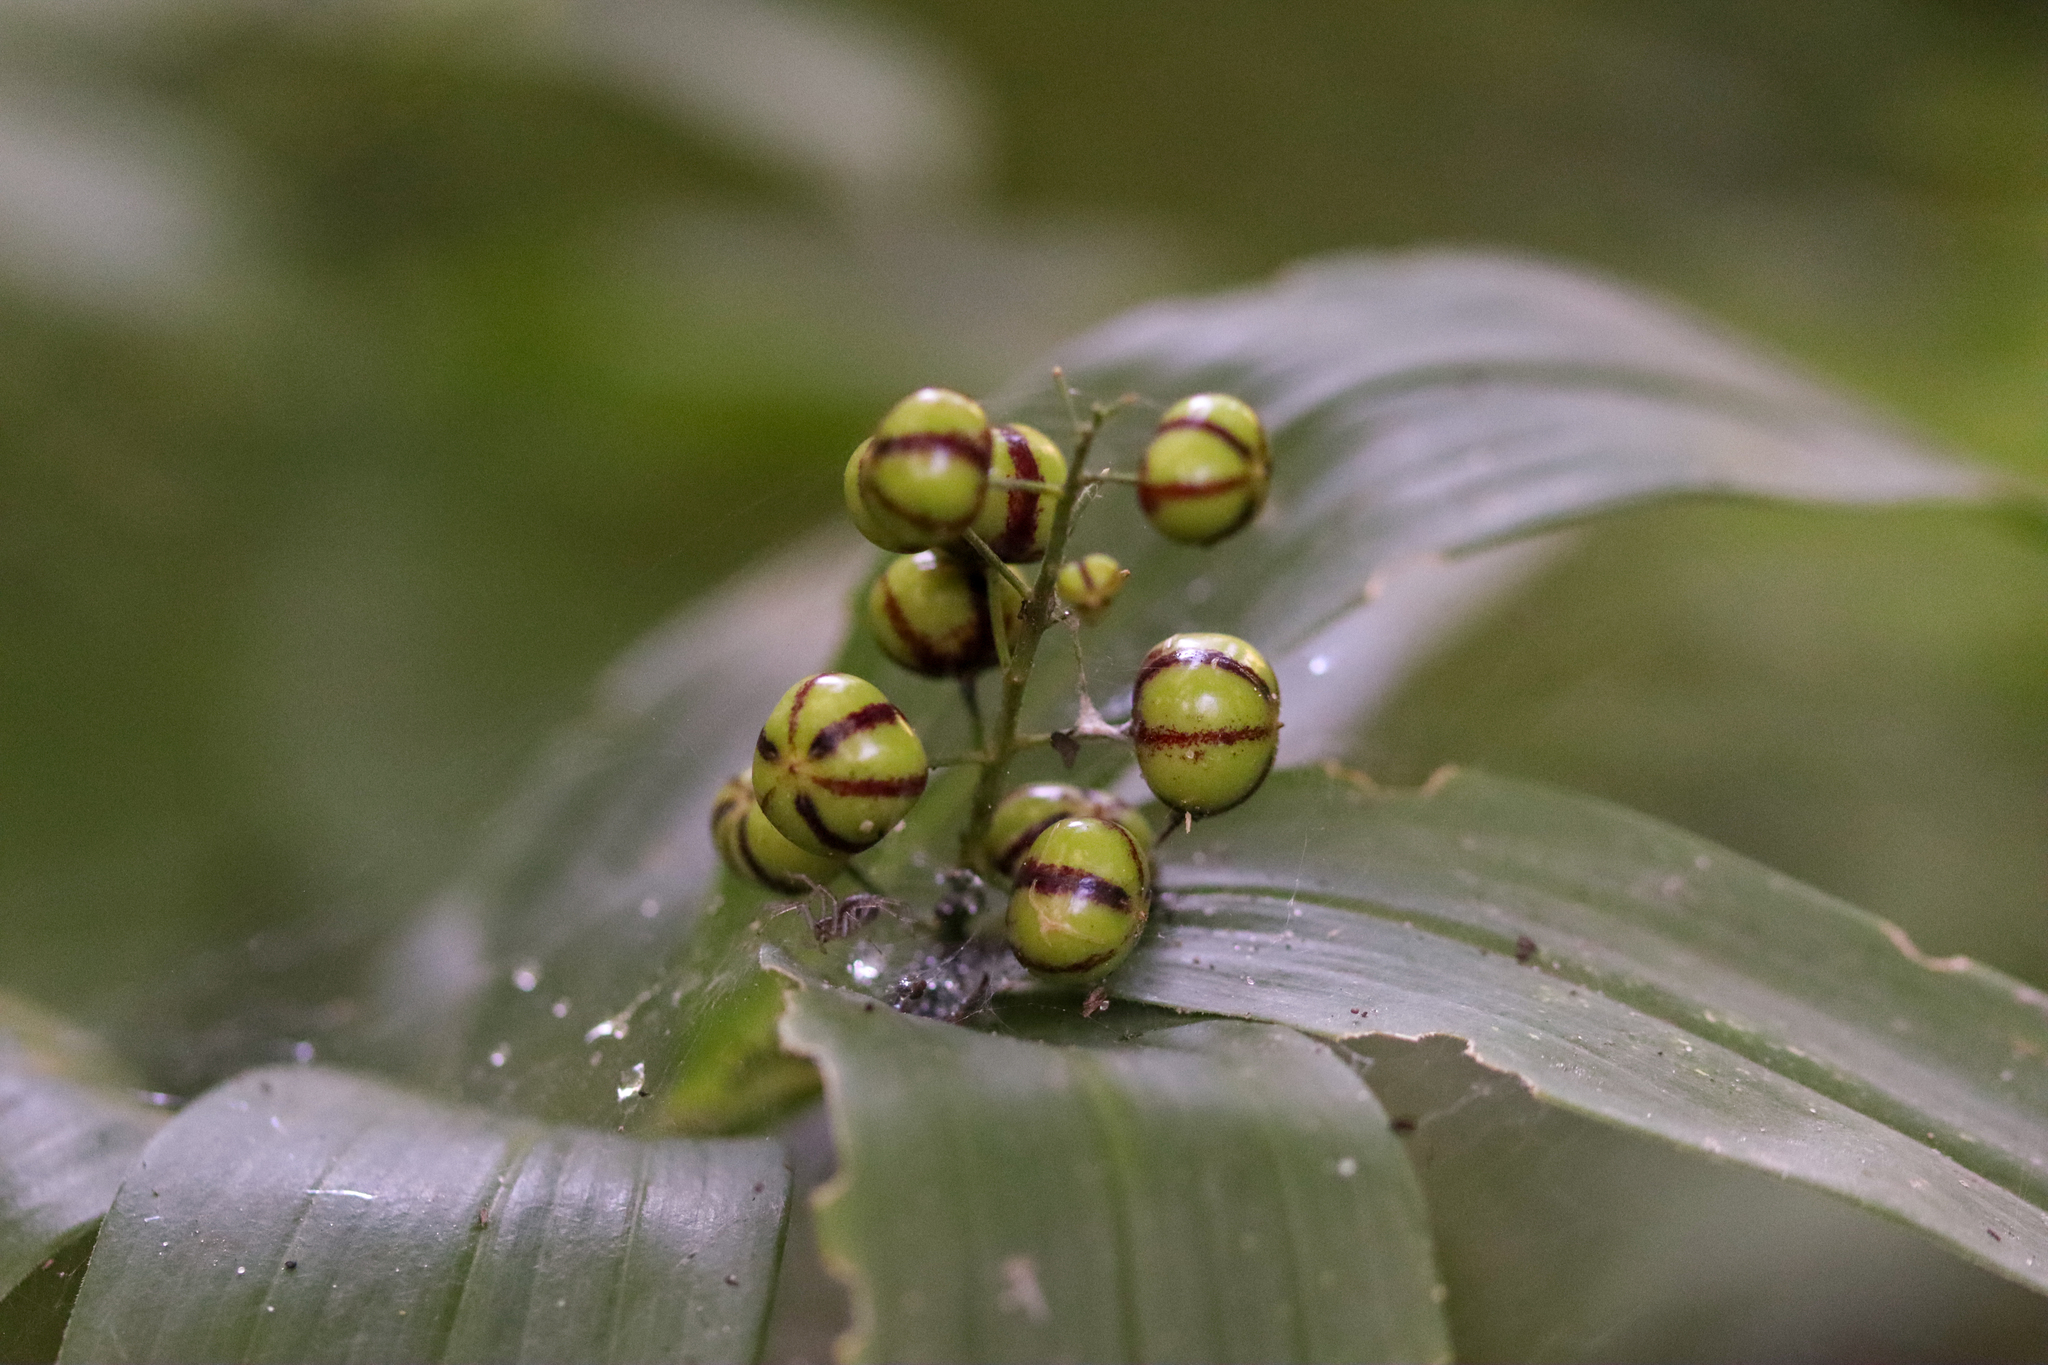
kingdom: Plantae
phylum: Tracheophyta
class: Liliopsida
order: Asparagales
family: Asparagaceae
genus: Maianthemum
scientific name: Maianthemum stellatum
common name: Little false solomon's seal
